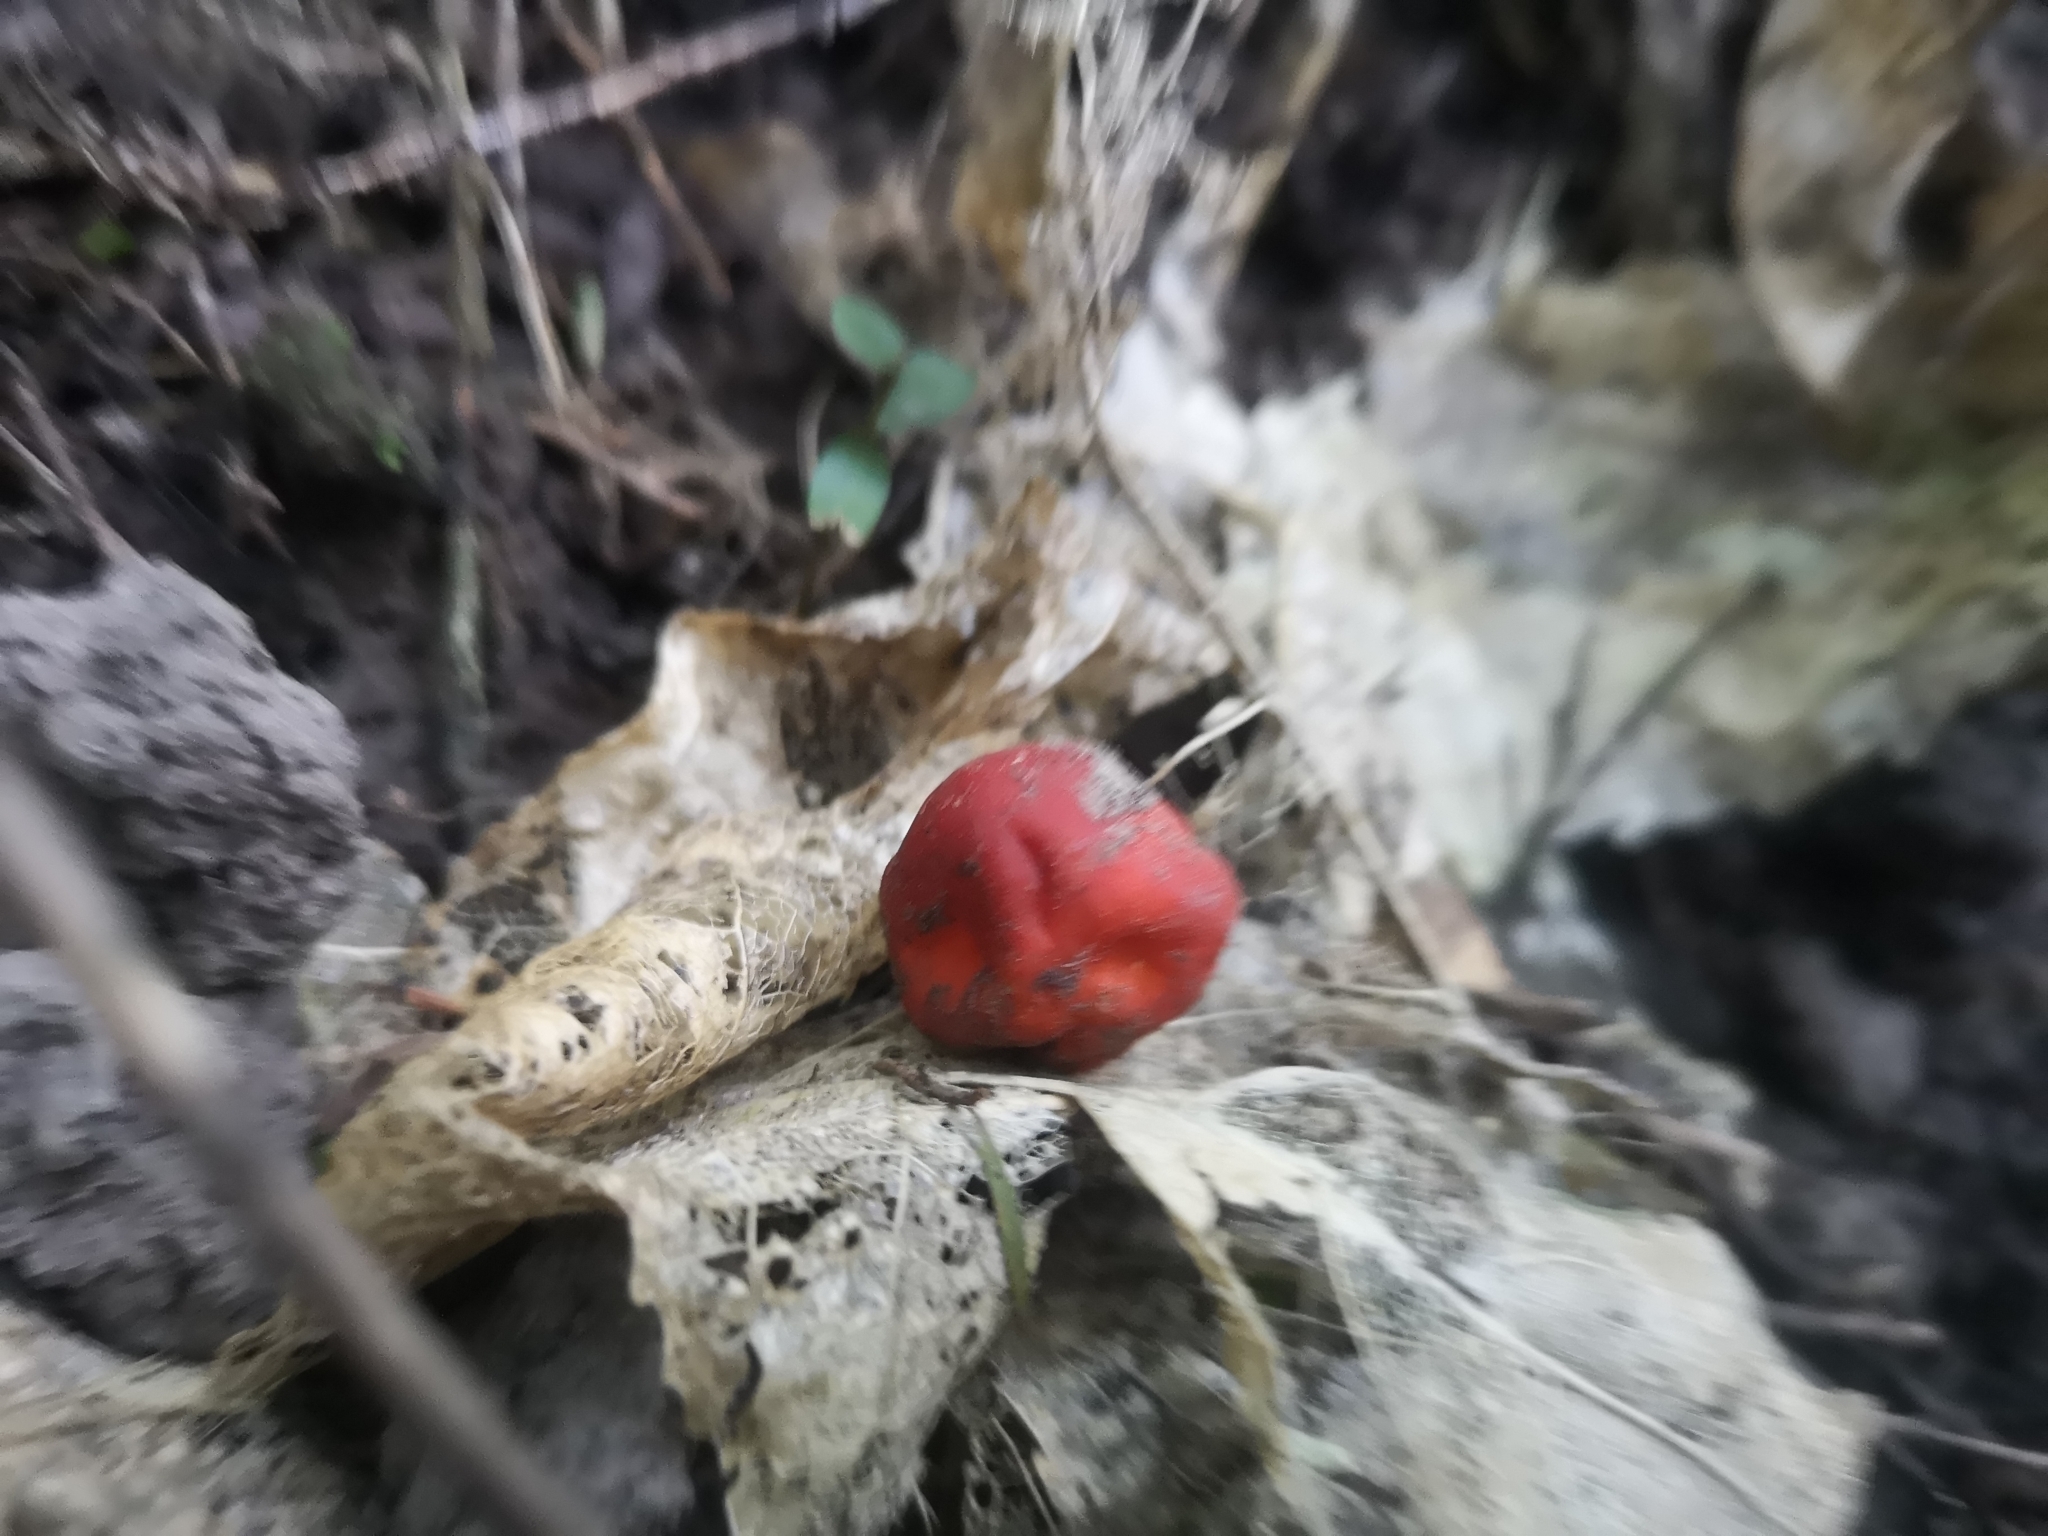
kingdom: Fungi
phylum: Ascomycota
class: Pezizomycetes
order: Pezizales
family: Pyronemataceae
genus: Paurocotylis
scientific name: Paurocotylis pila
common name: Scarlet berry truffle
